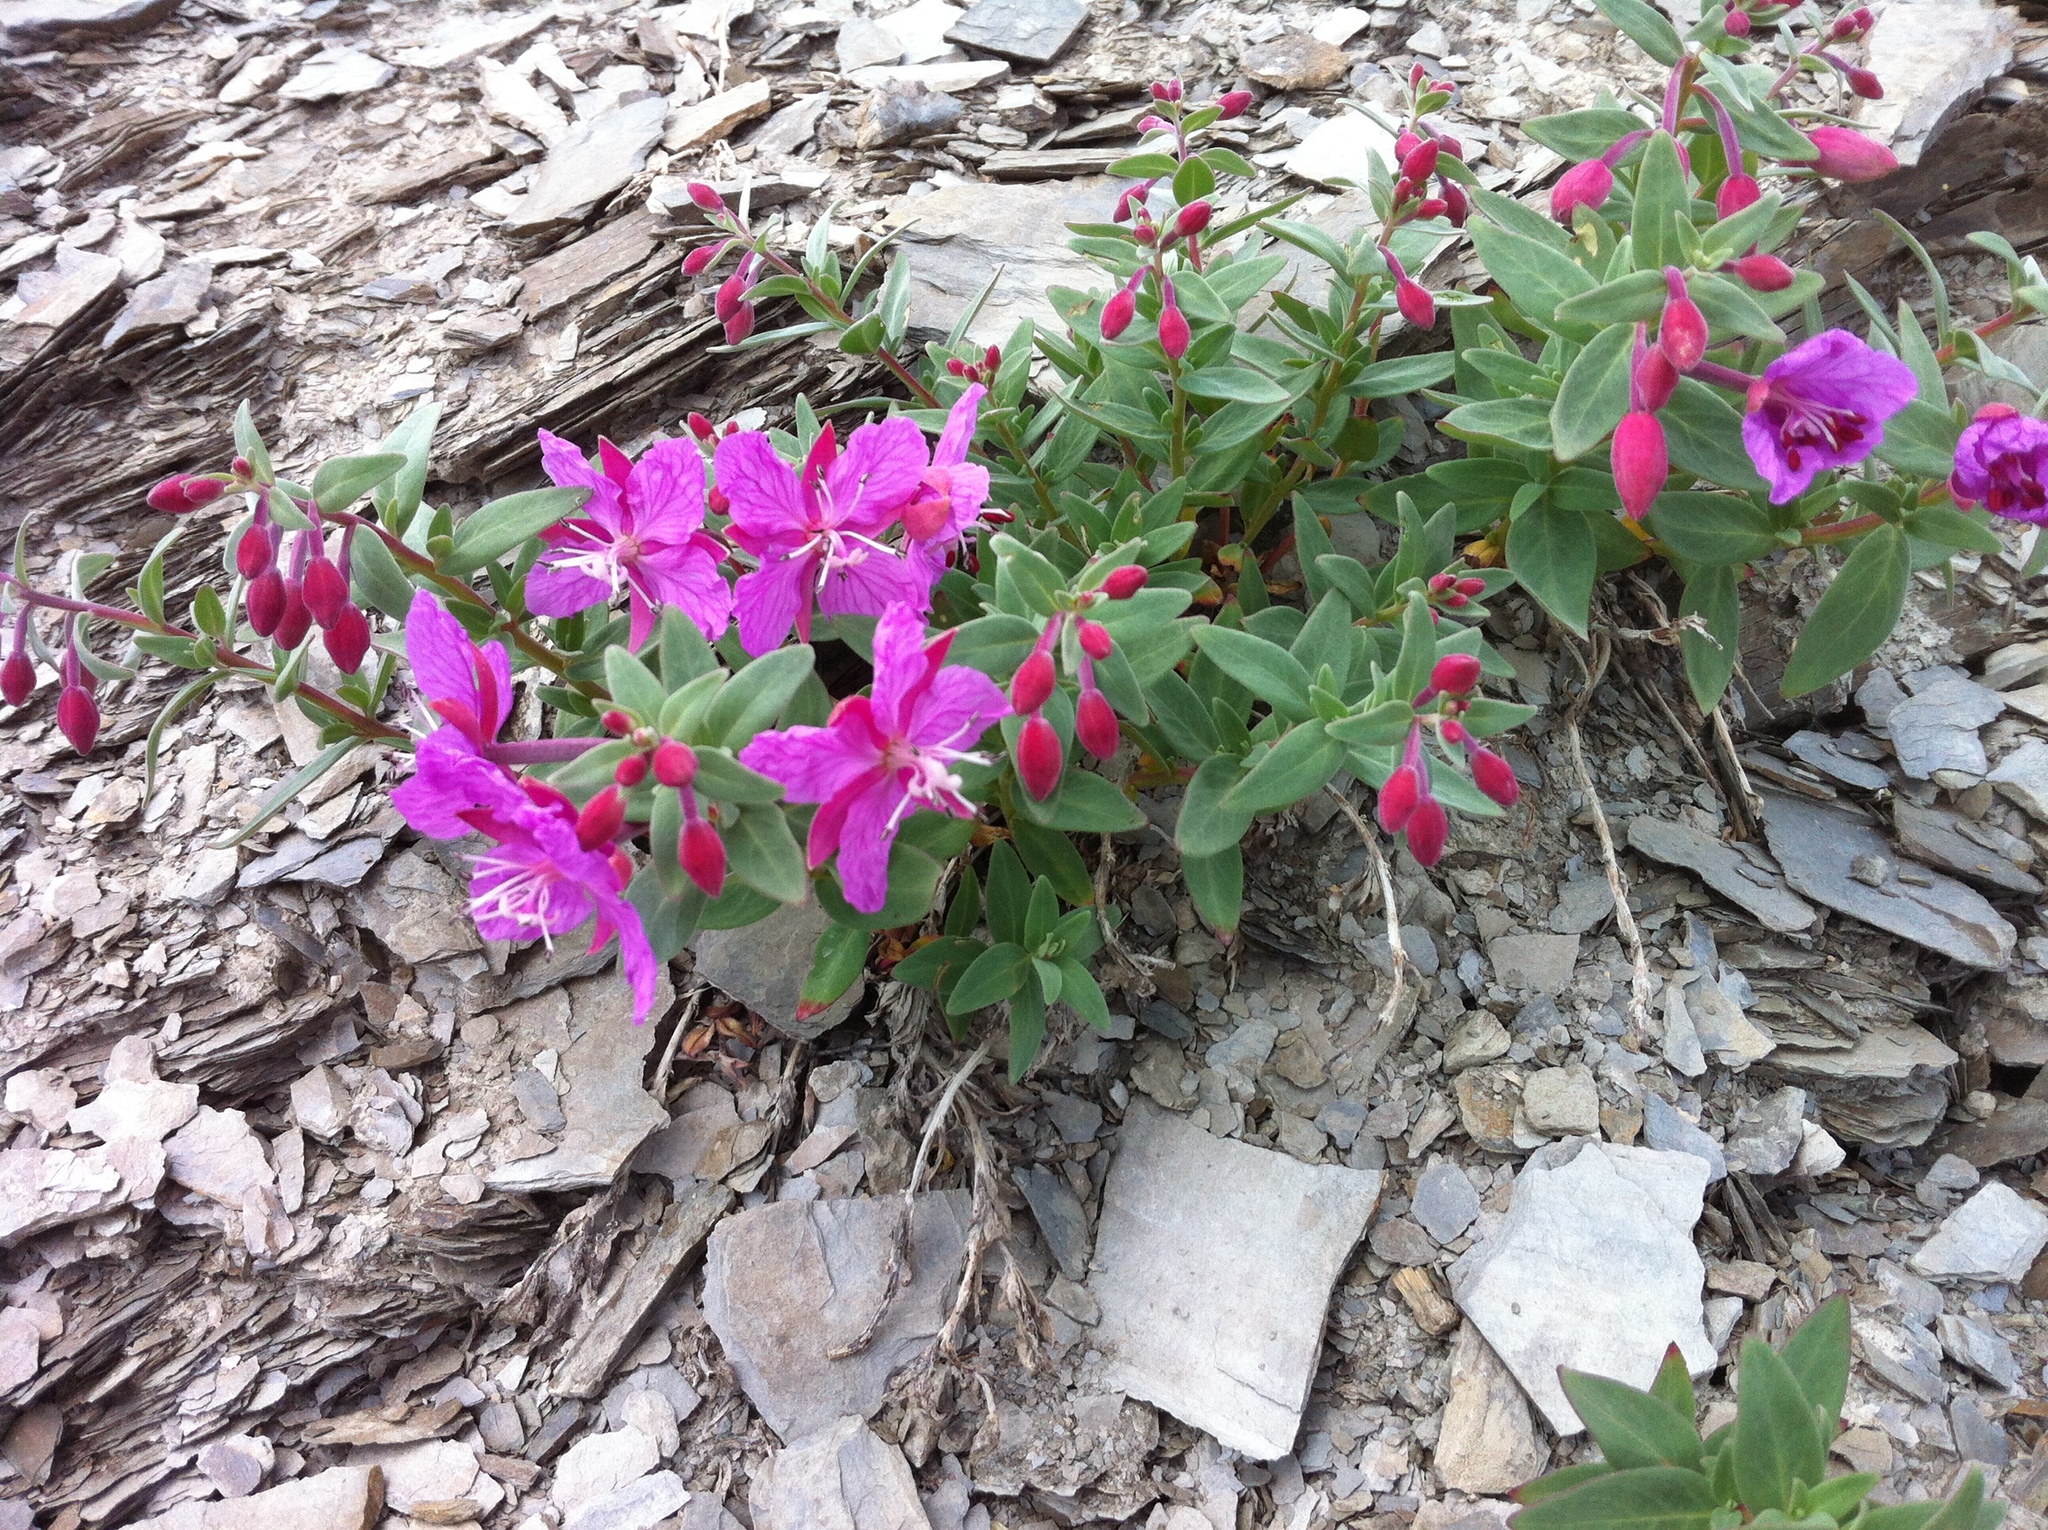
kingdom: Plantae
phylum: Tracheophyta
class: Magnoliopsida
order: Myrtales
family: Onagraceae
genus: Chamaenerion
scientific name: Chamaenerion latifolium
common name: Dwarf fireweed
